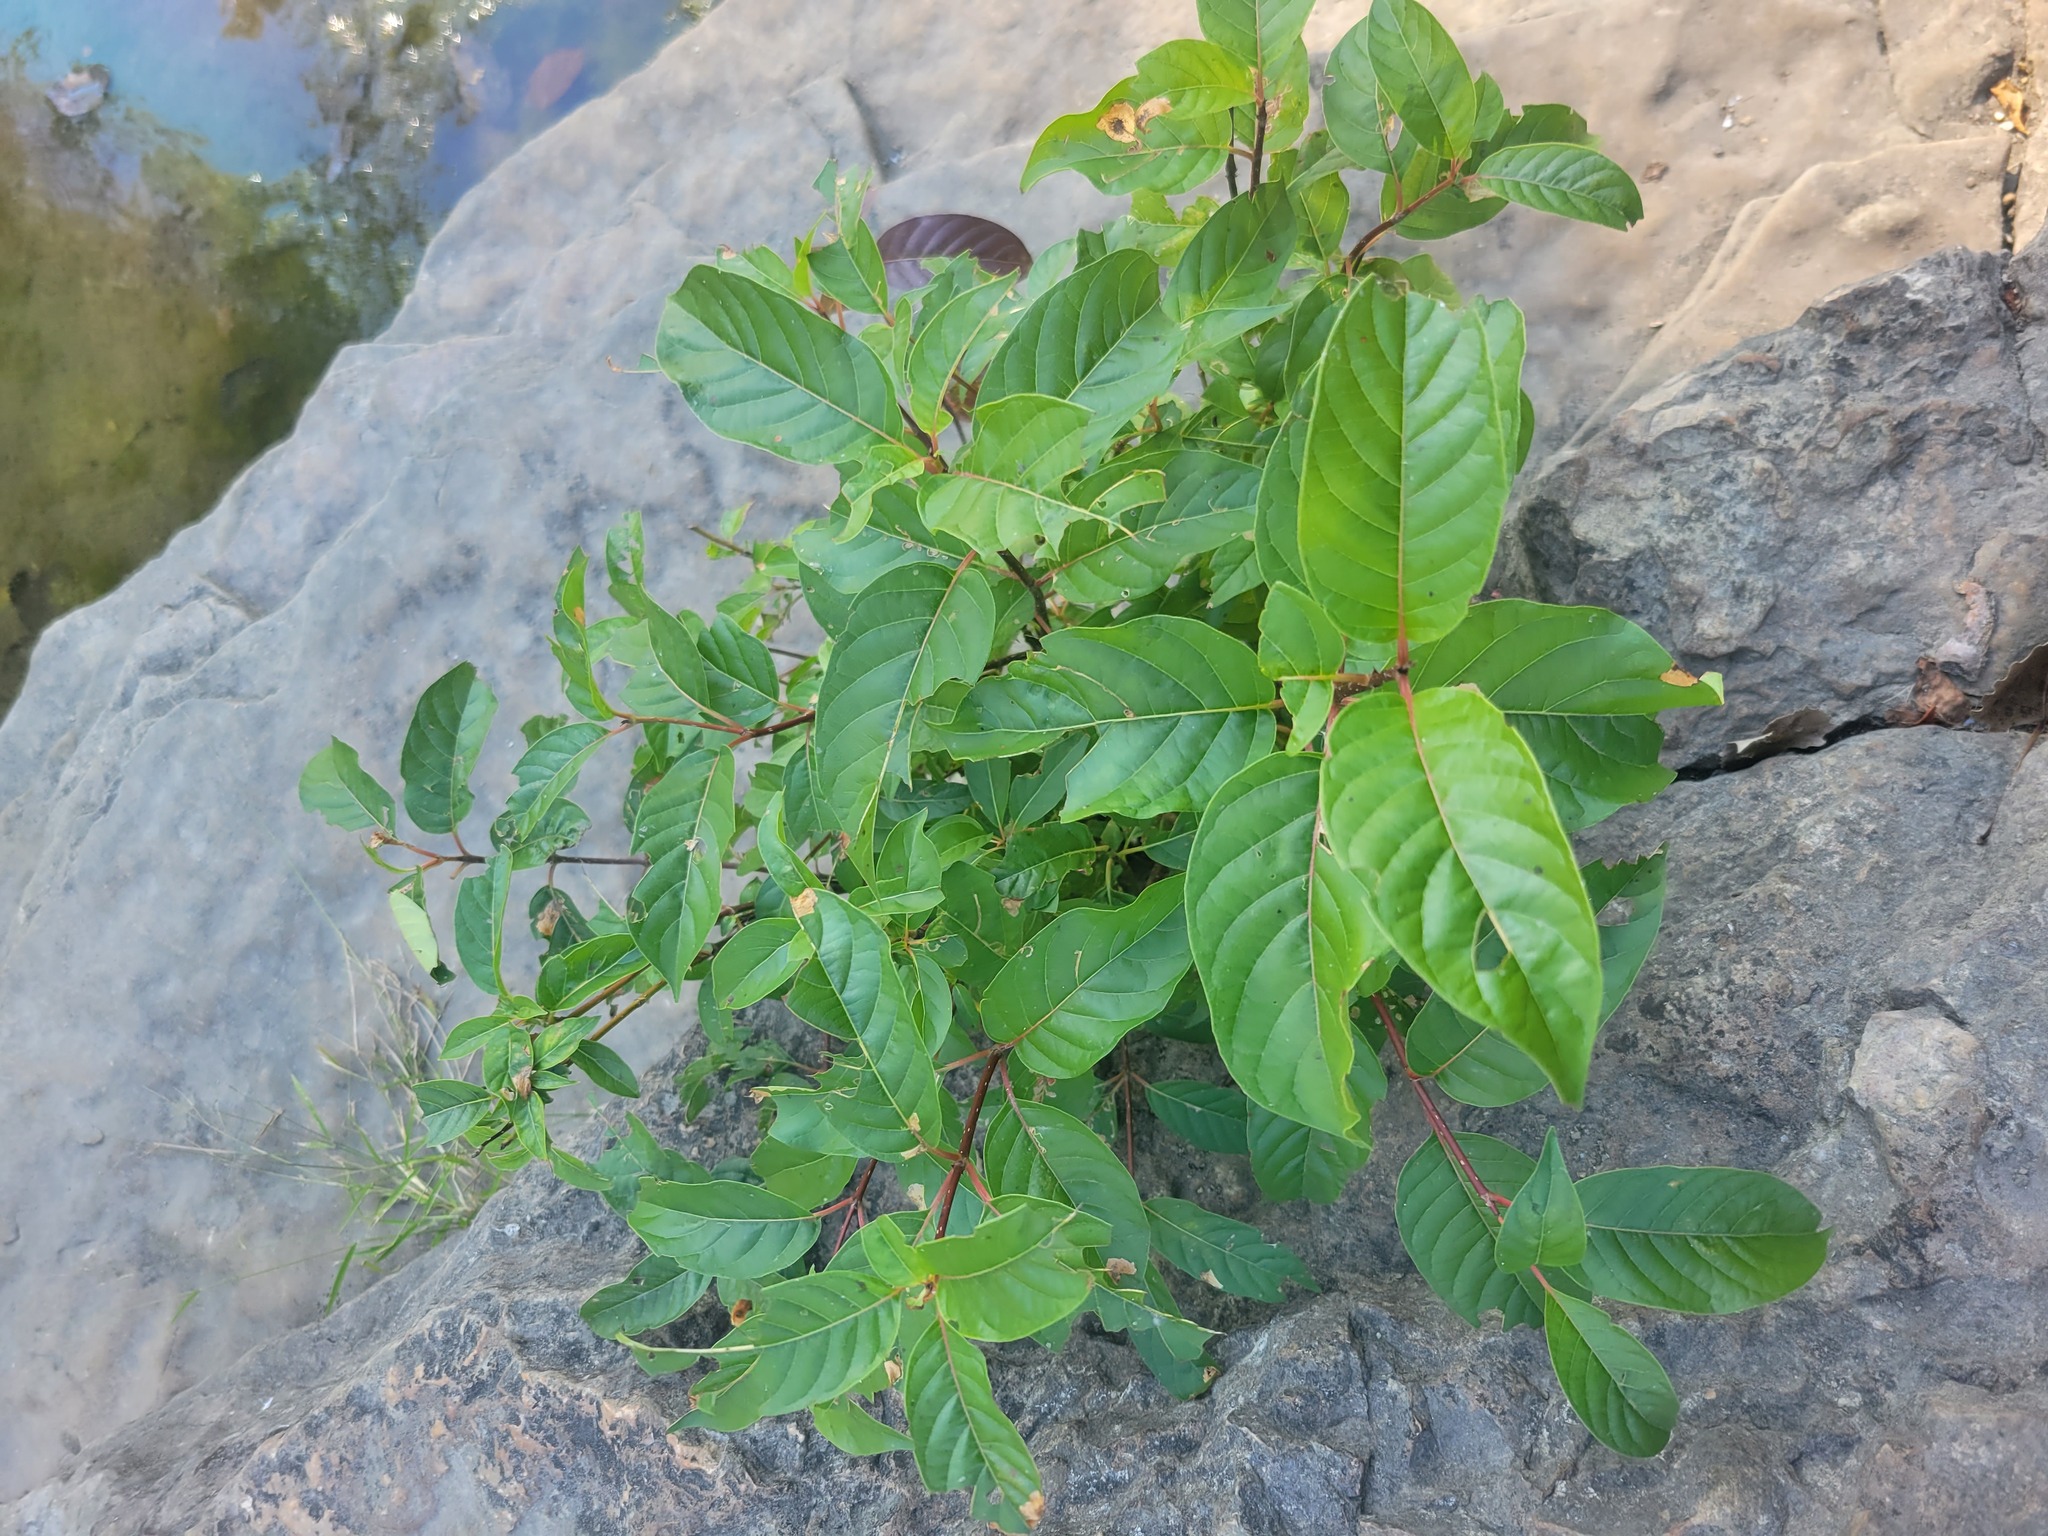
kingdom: Plantae
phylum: Tracheophyta
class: Magnoliopsida
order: Gentianales
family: Rubiaceae
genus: Cephalanthus
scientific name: Cephalanthus occidentalis
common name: Button-willow
